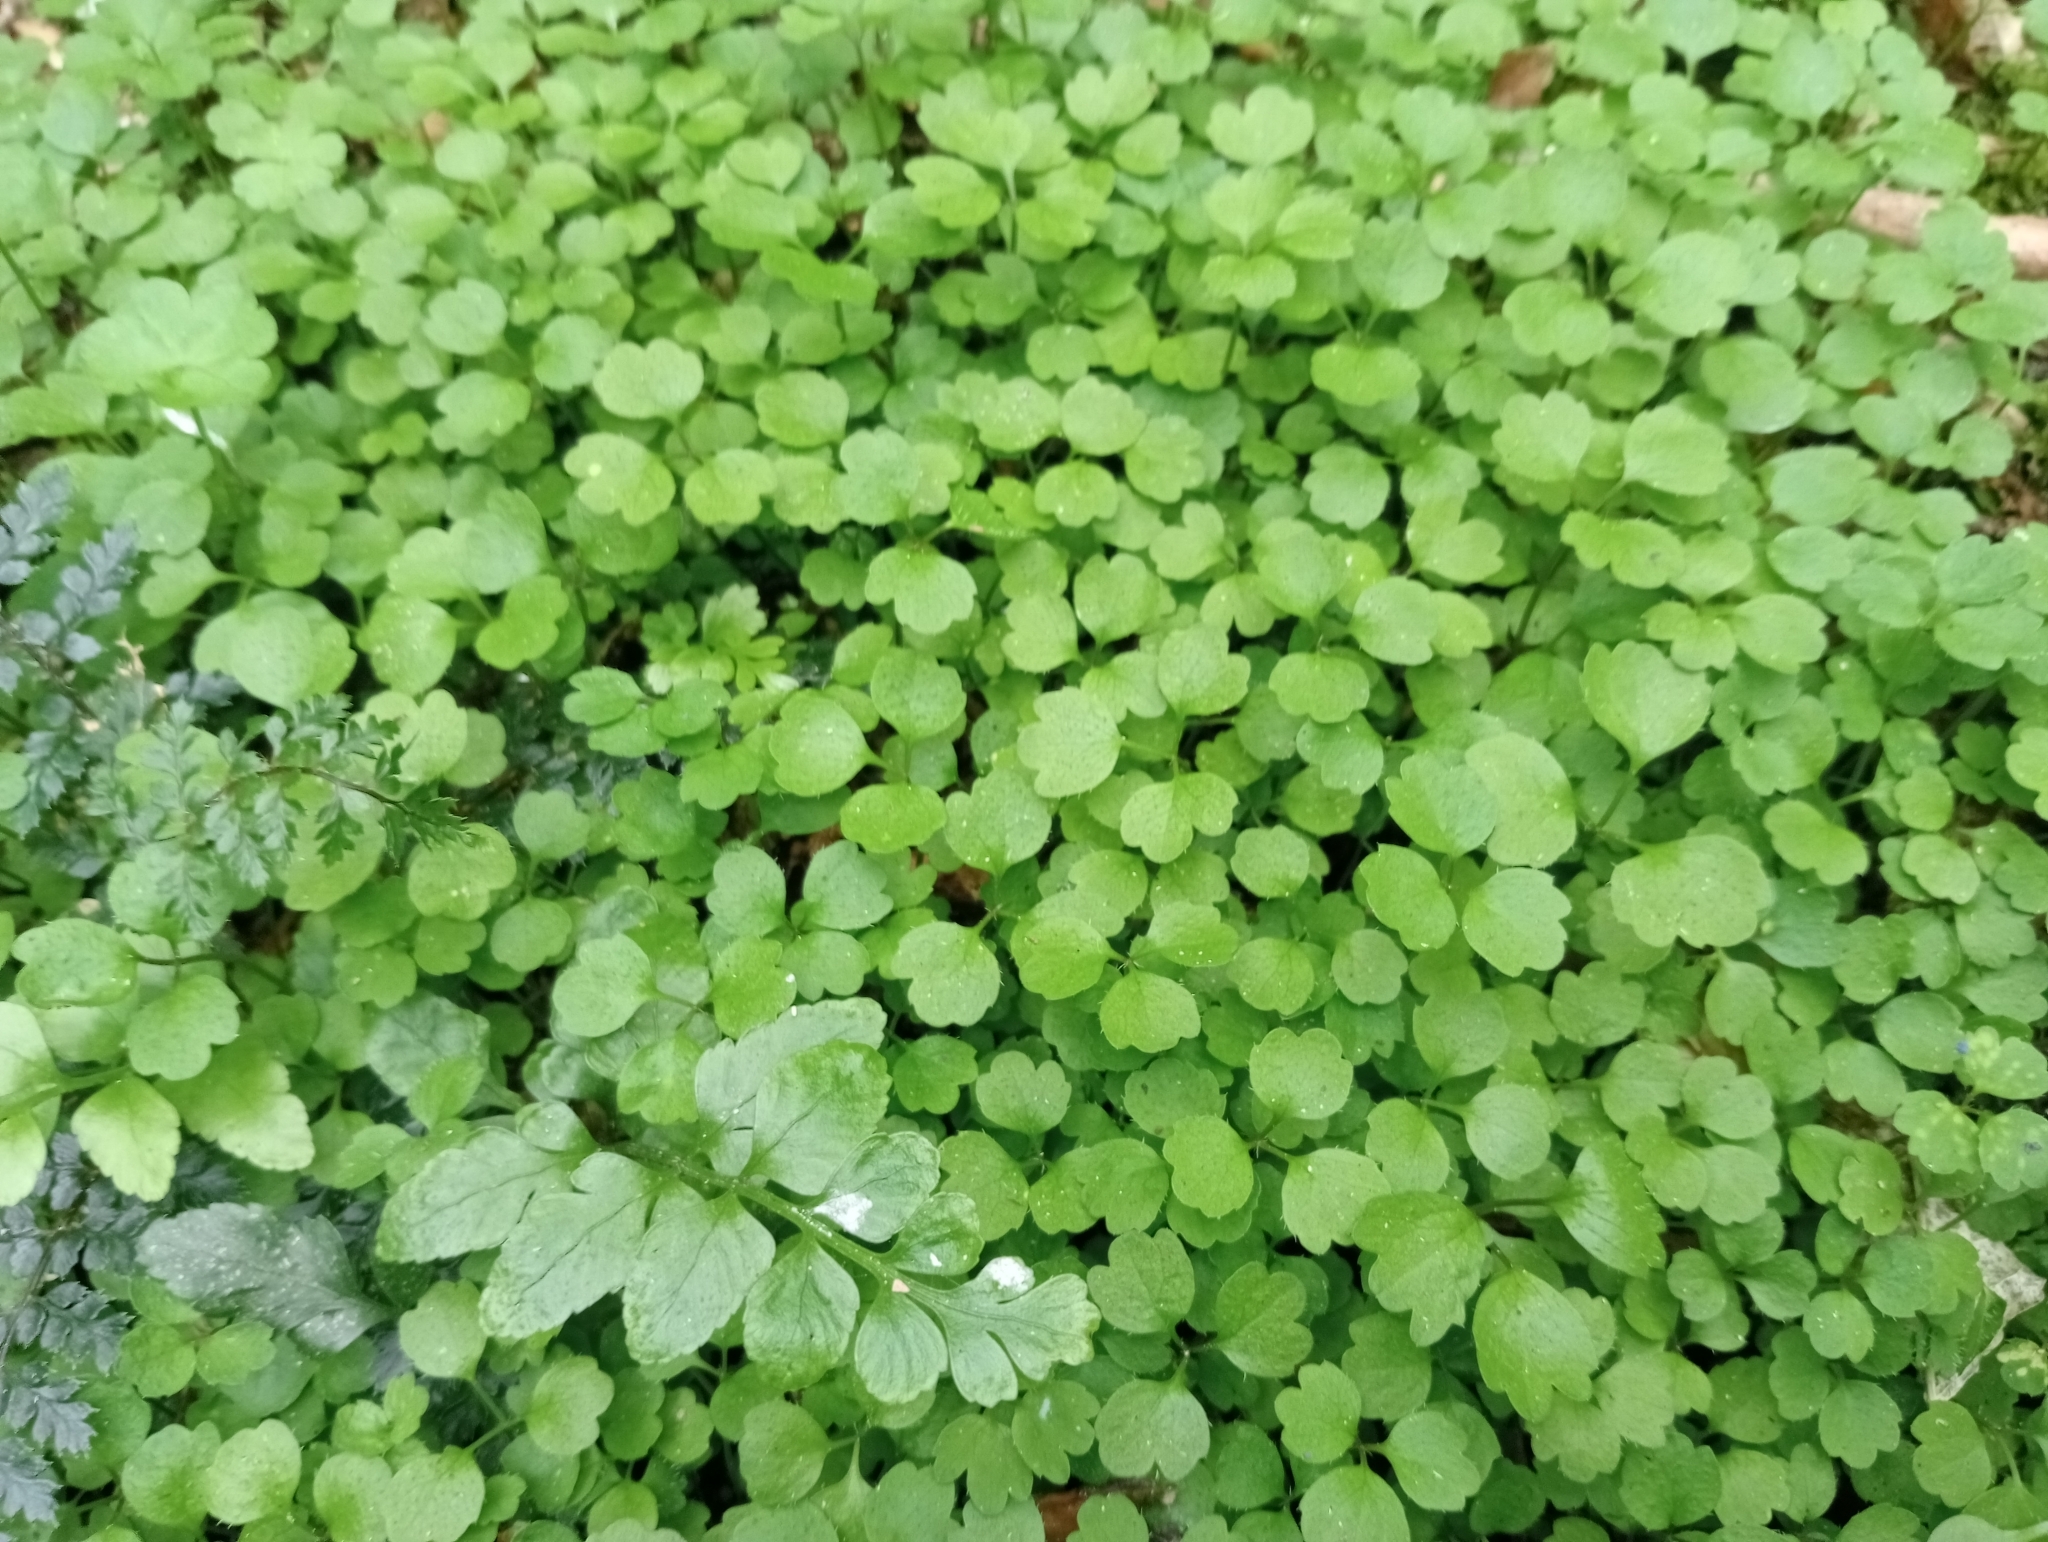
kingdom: Plantae
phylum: Tracheophyta
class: Magnoliopsida
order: Apiales
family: Apiaceae
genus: Azorella
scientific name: Azorella hookeri
